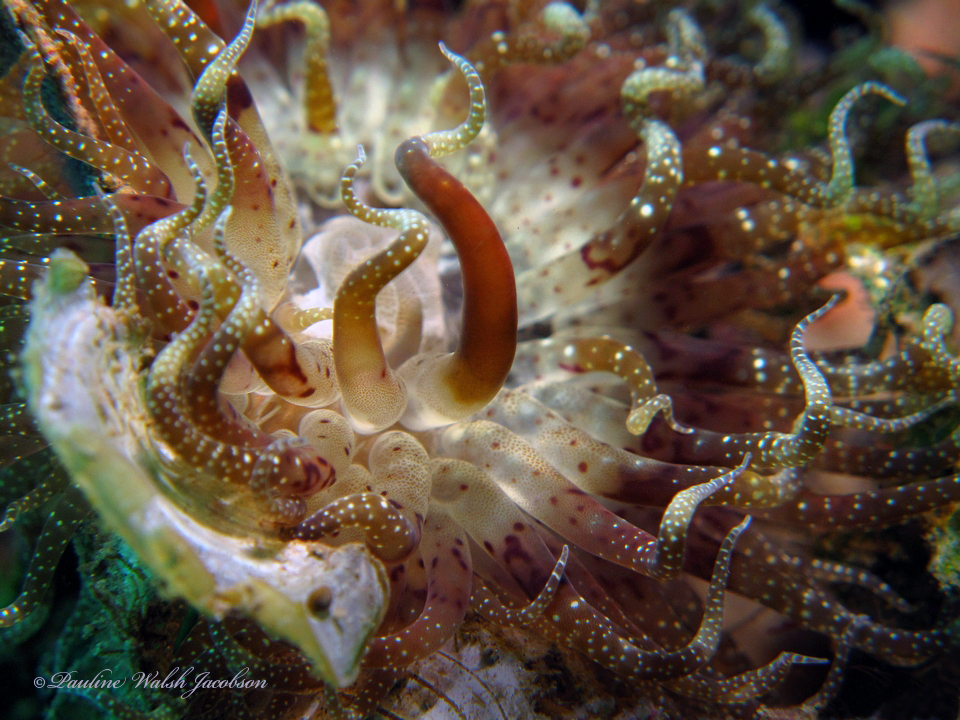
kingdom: Animalia
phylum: Cnidaria
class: Anthozoa
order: Actiniaria
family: Boloceroididae
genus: Boloceroides
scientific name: Boloceroides mcmurrichi
